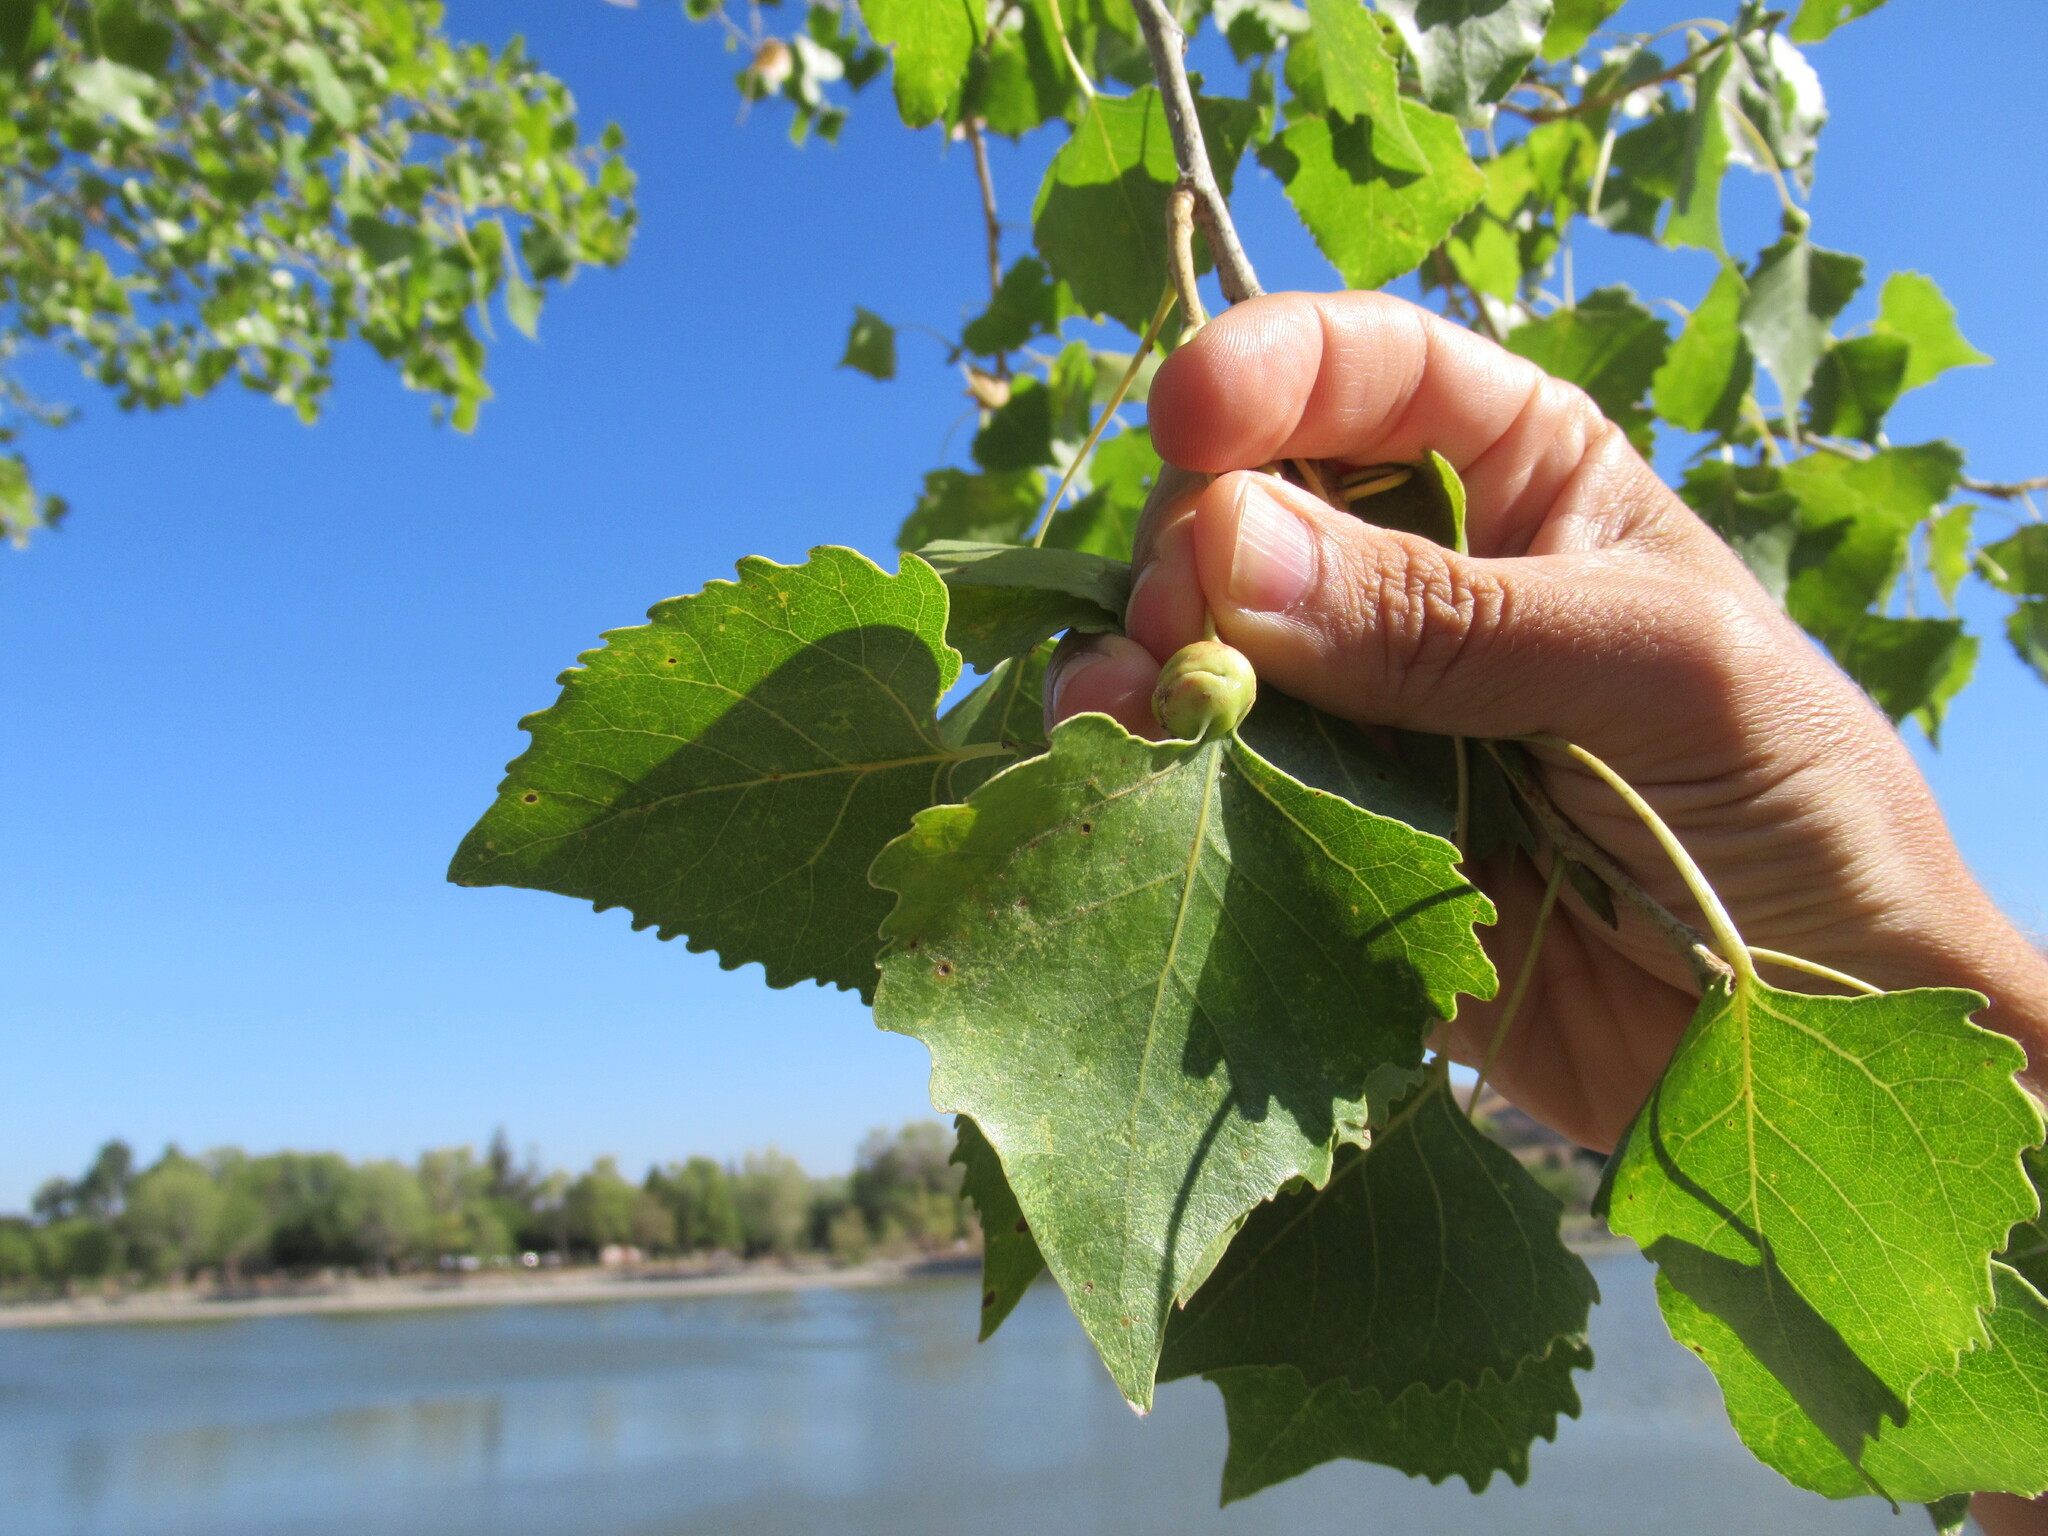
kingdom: Animalia
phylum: Arthropoda
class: Insecta
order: Hemiptera
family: Aphididae
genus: Pemphigus
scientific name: Pemphigus obesinymphae
